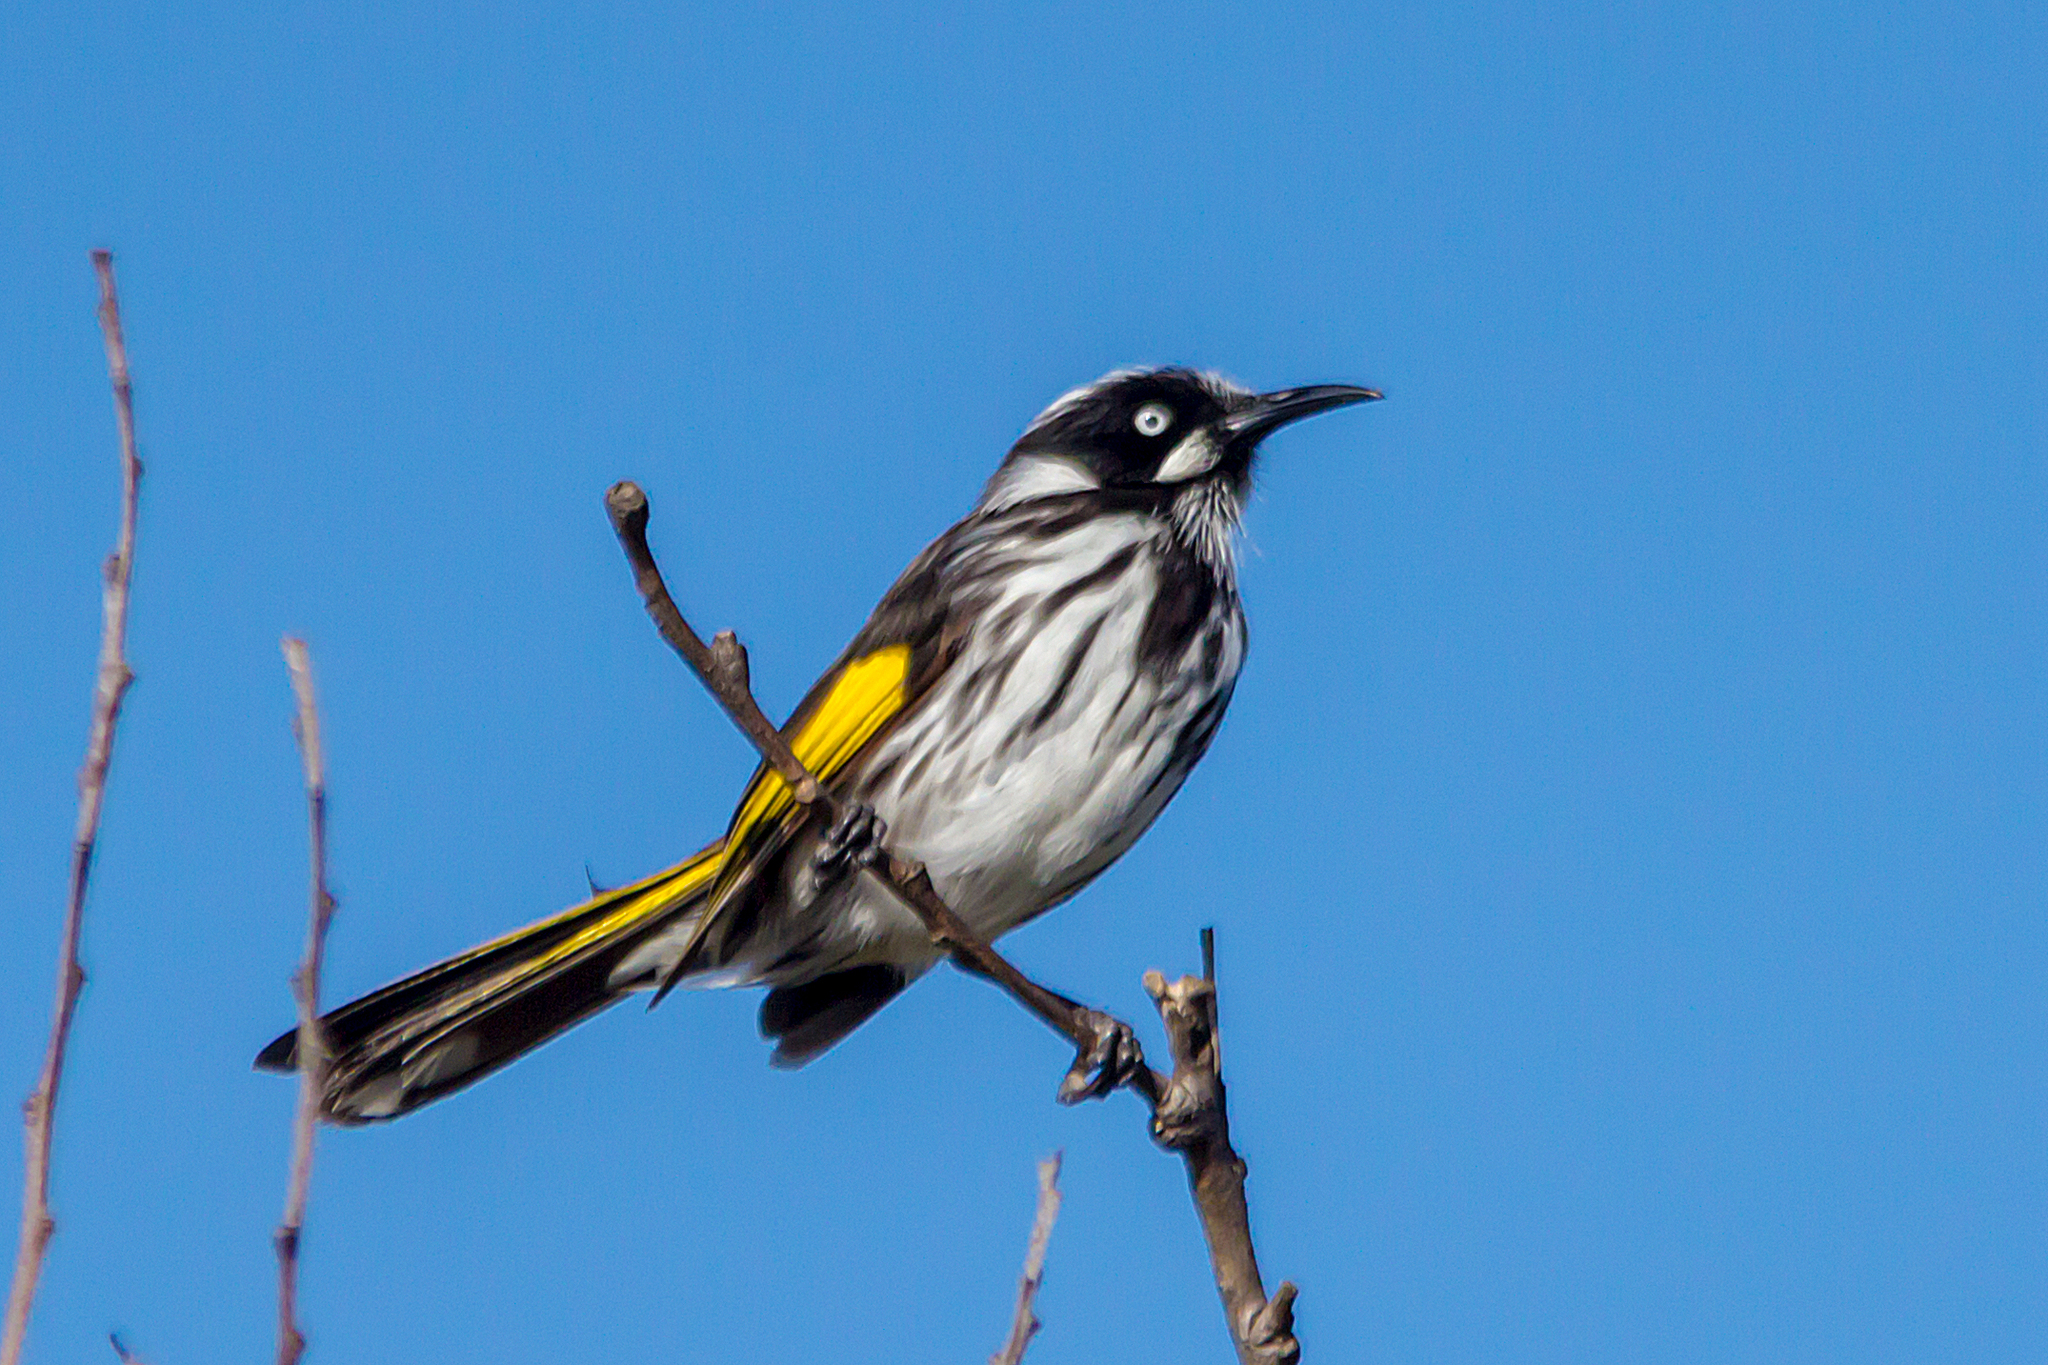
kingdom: Animalia
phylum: Chordata
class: Aves
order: Passeriformes
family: Meliphagidae
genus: Phylidonyris
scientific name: Phylidonyris novaehollandiae
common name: New holland honeyeater
